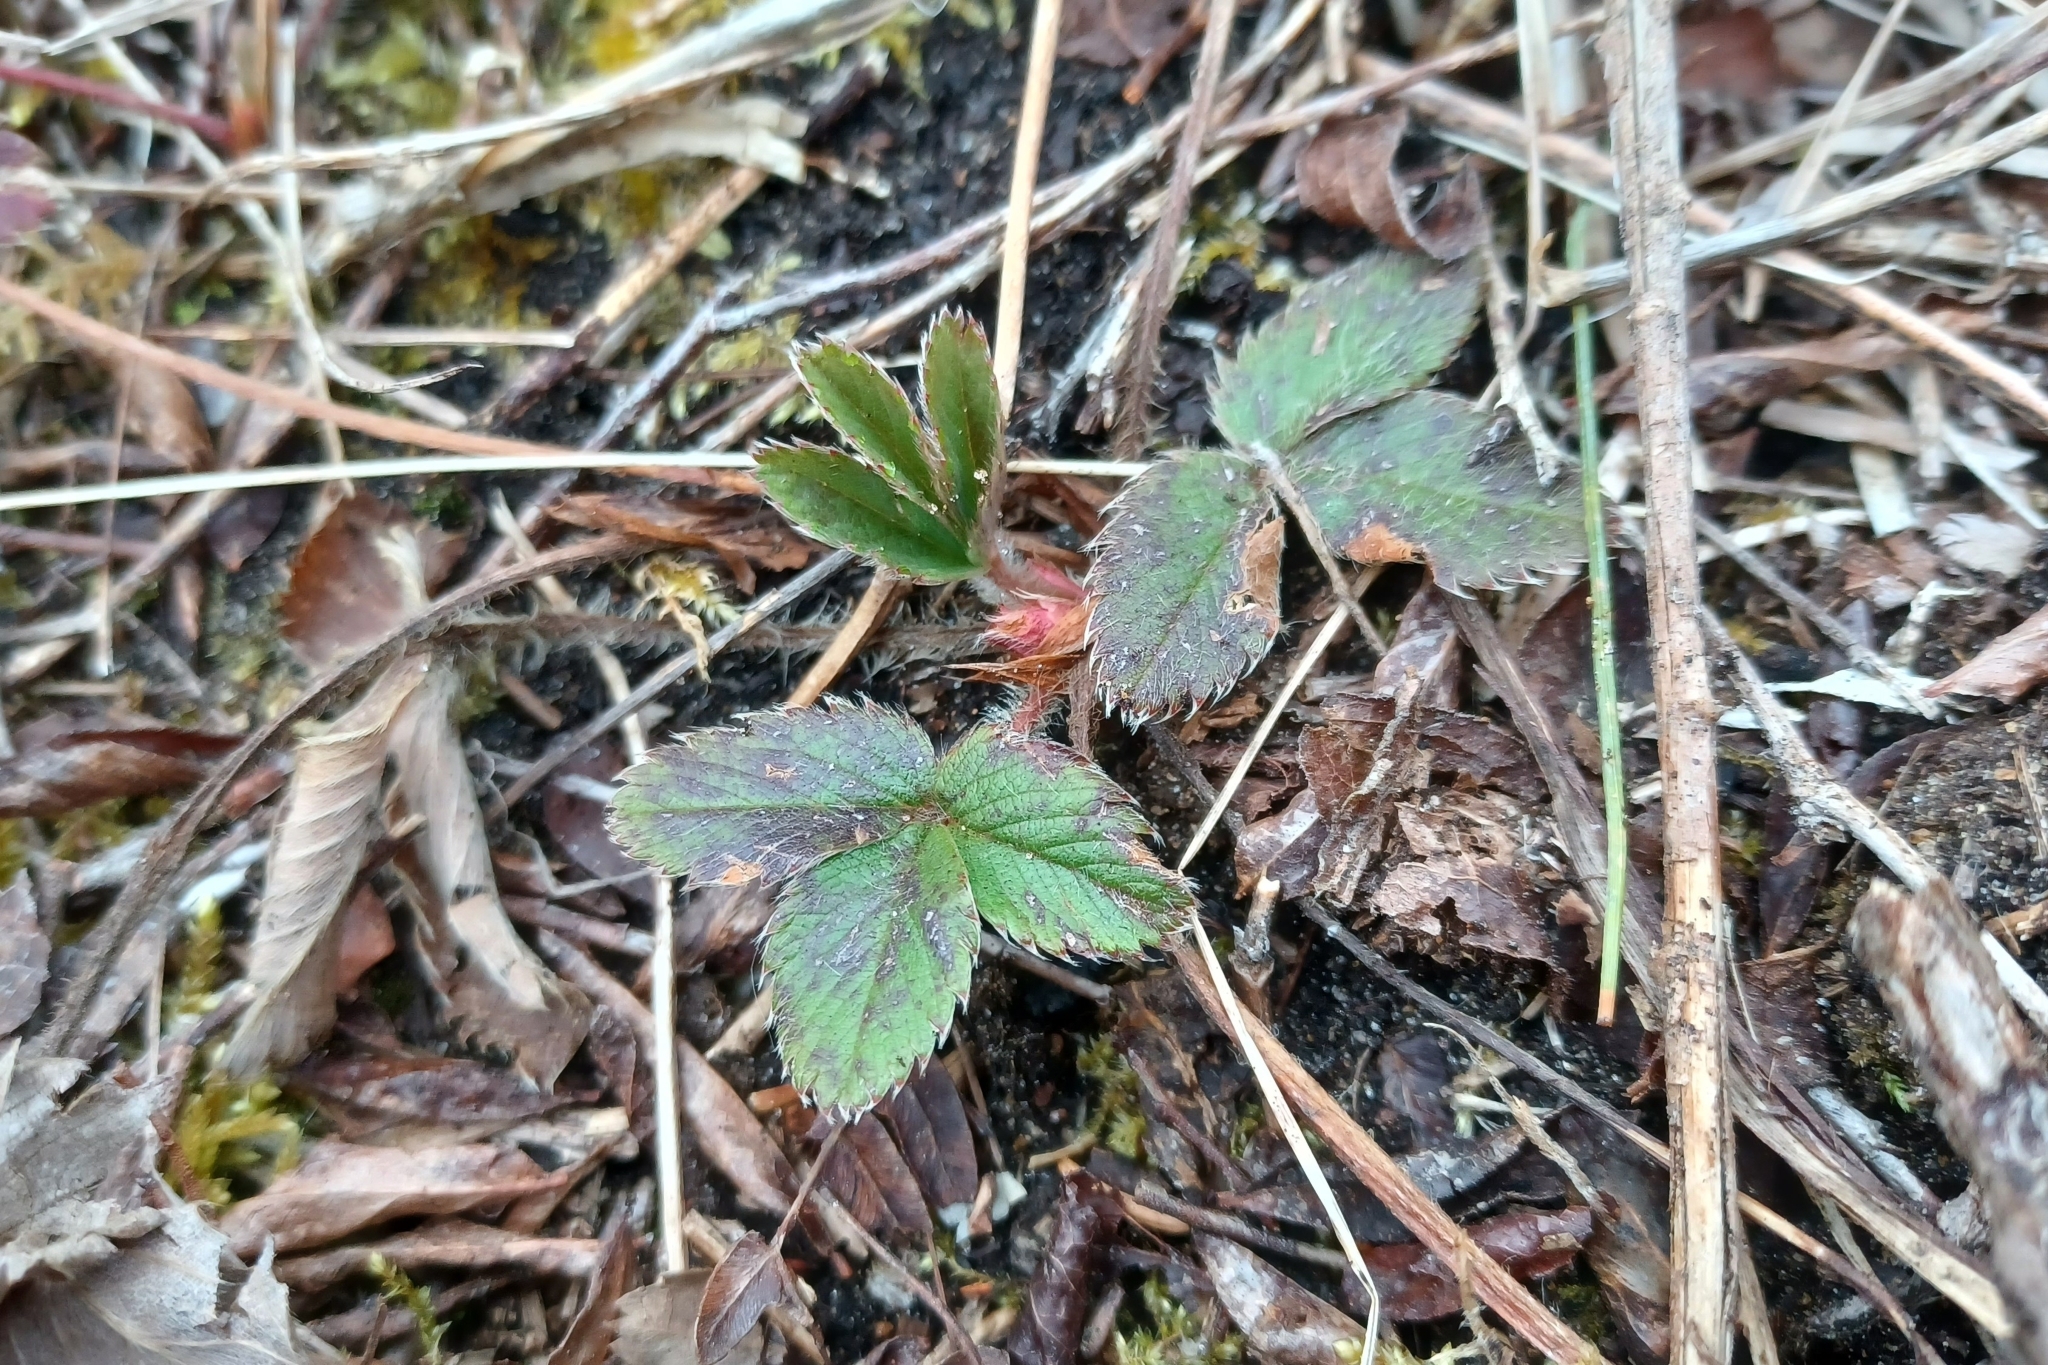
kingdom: Plantae
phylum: Tracheophyta
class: Magnoliopsida
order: Rosales
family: Rosaceae
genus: Fragaria
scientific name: Fragaria virginiana
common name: Thickleaved wild strawberry
